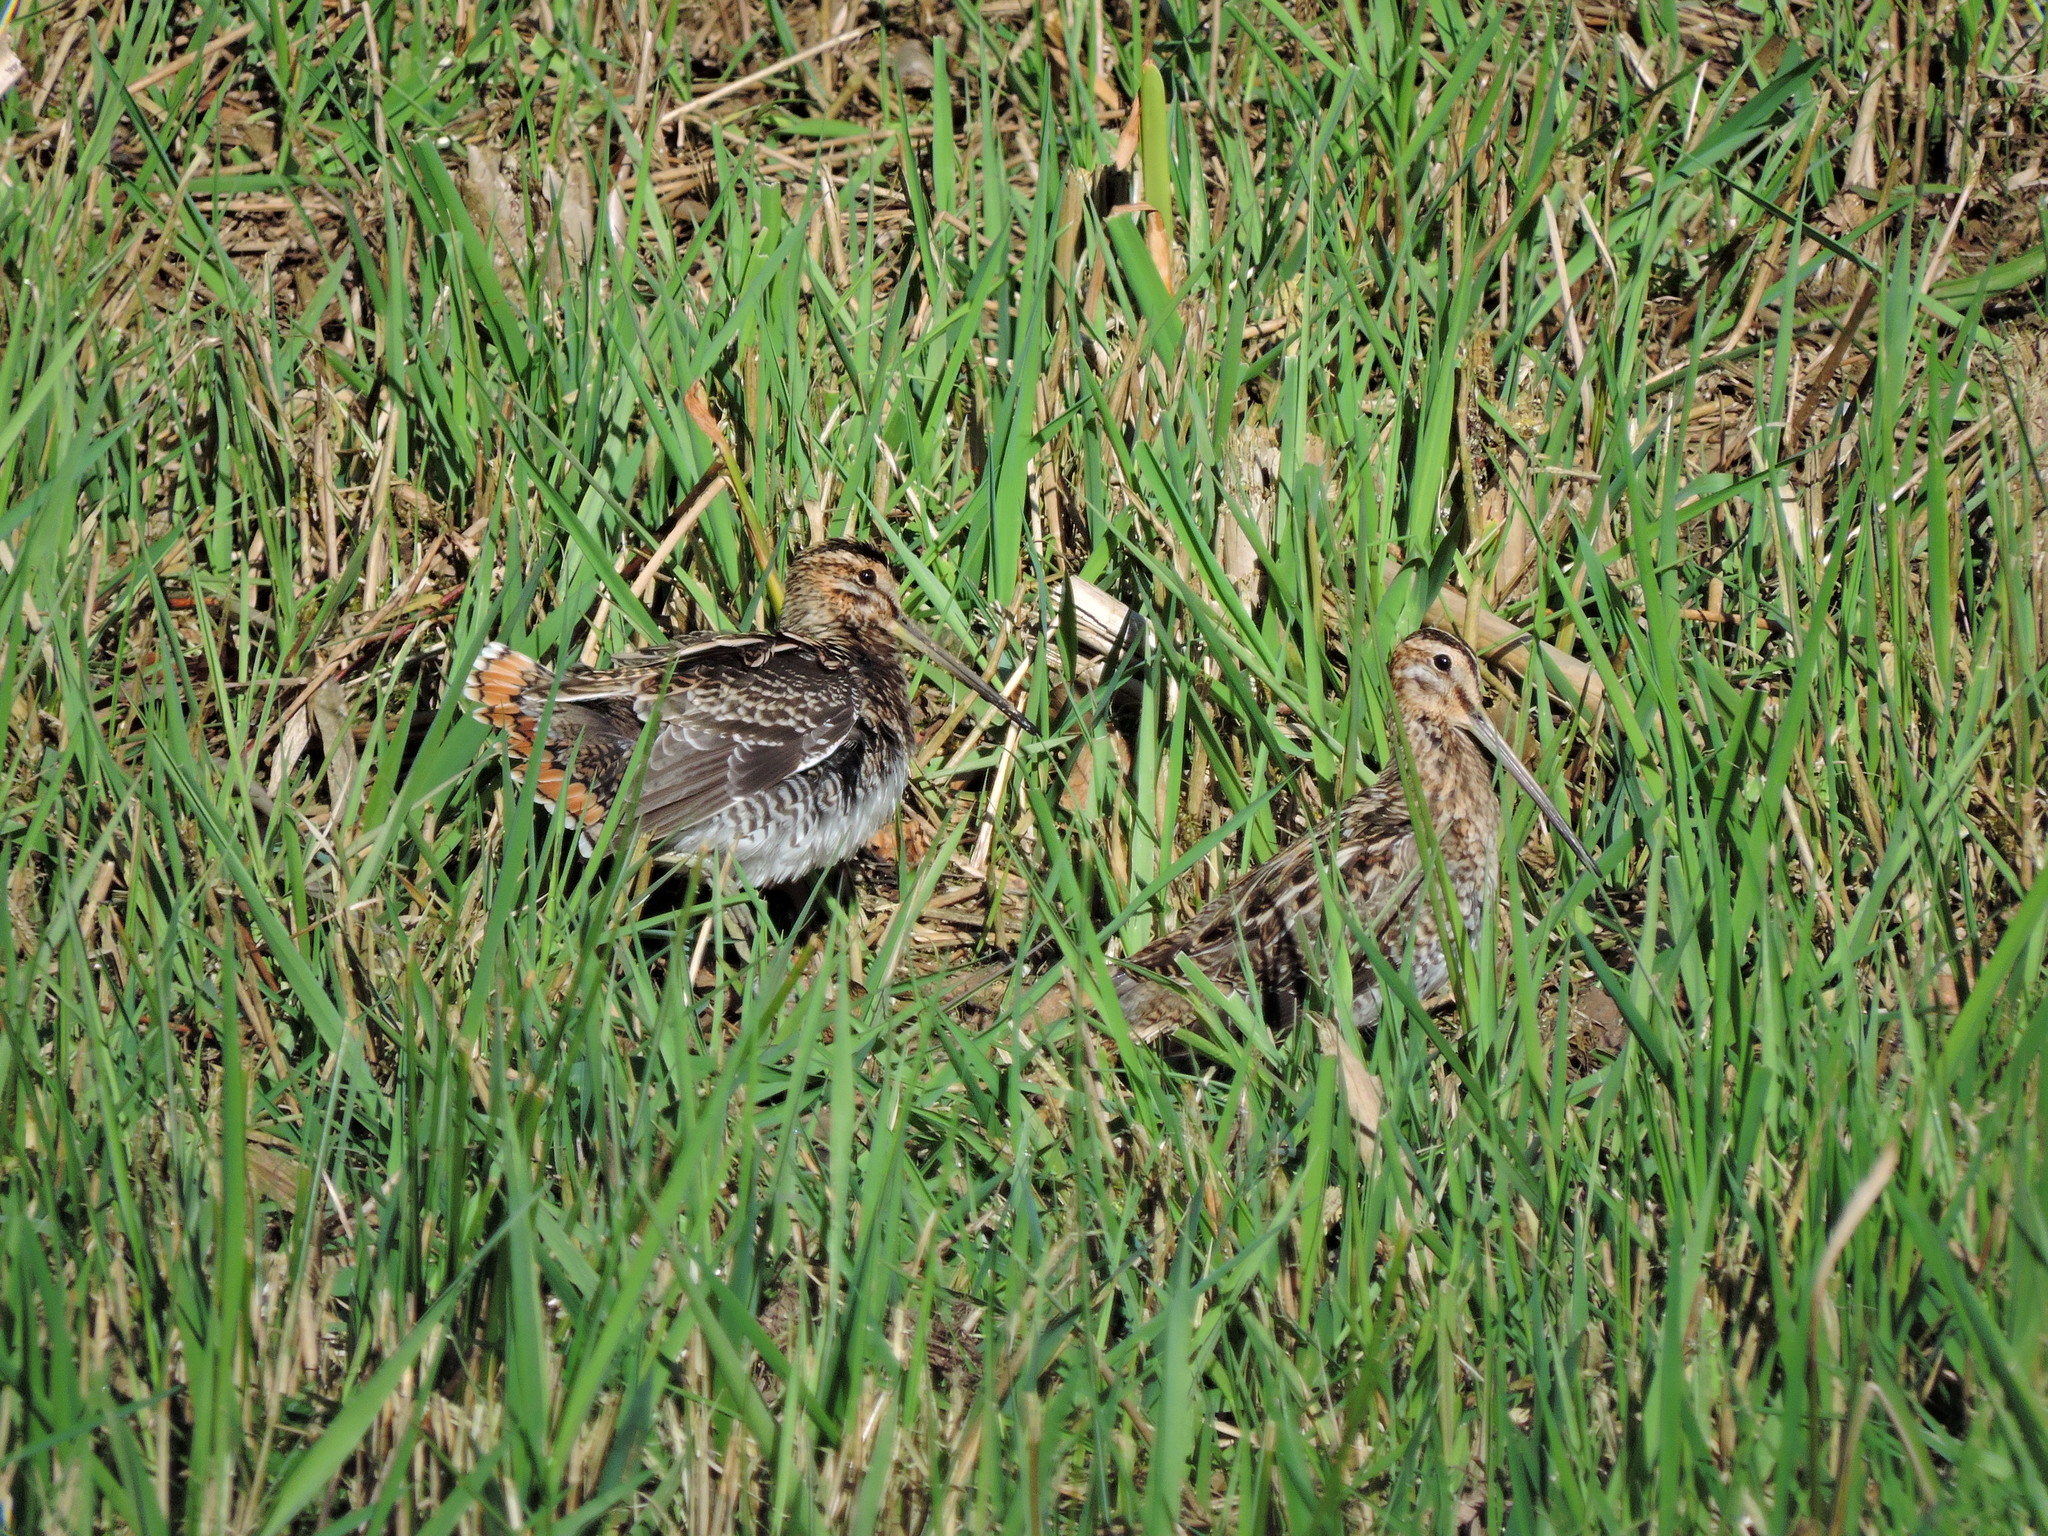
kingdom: Animalia
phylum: Chordata
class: Aves
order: Charadriiformes
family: Scolopacidae
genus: Gallinago
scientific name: Gallinago gallinago
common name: Common snipe
